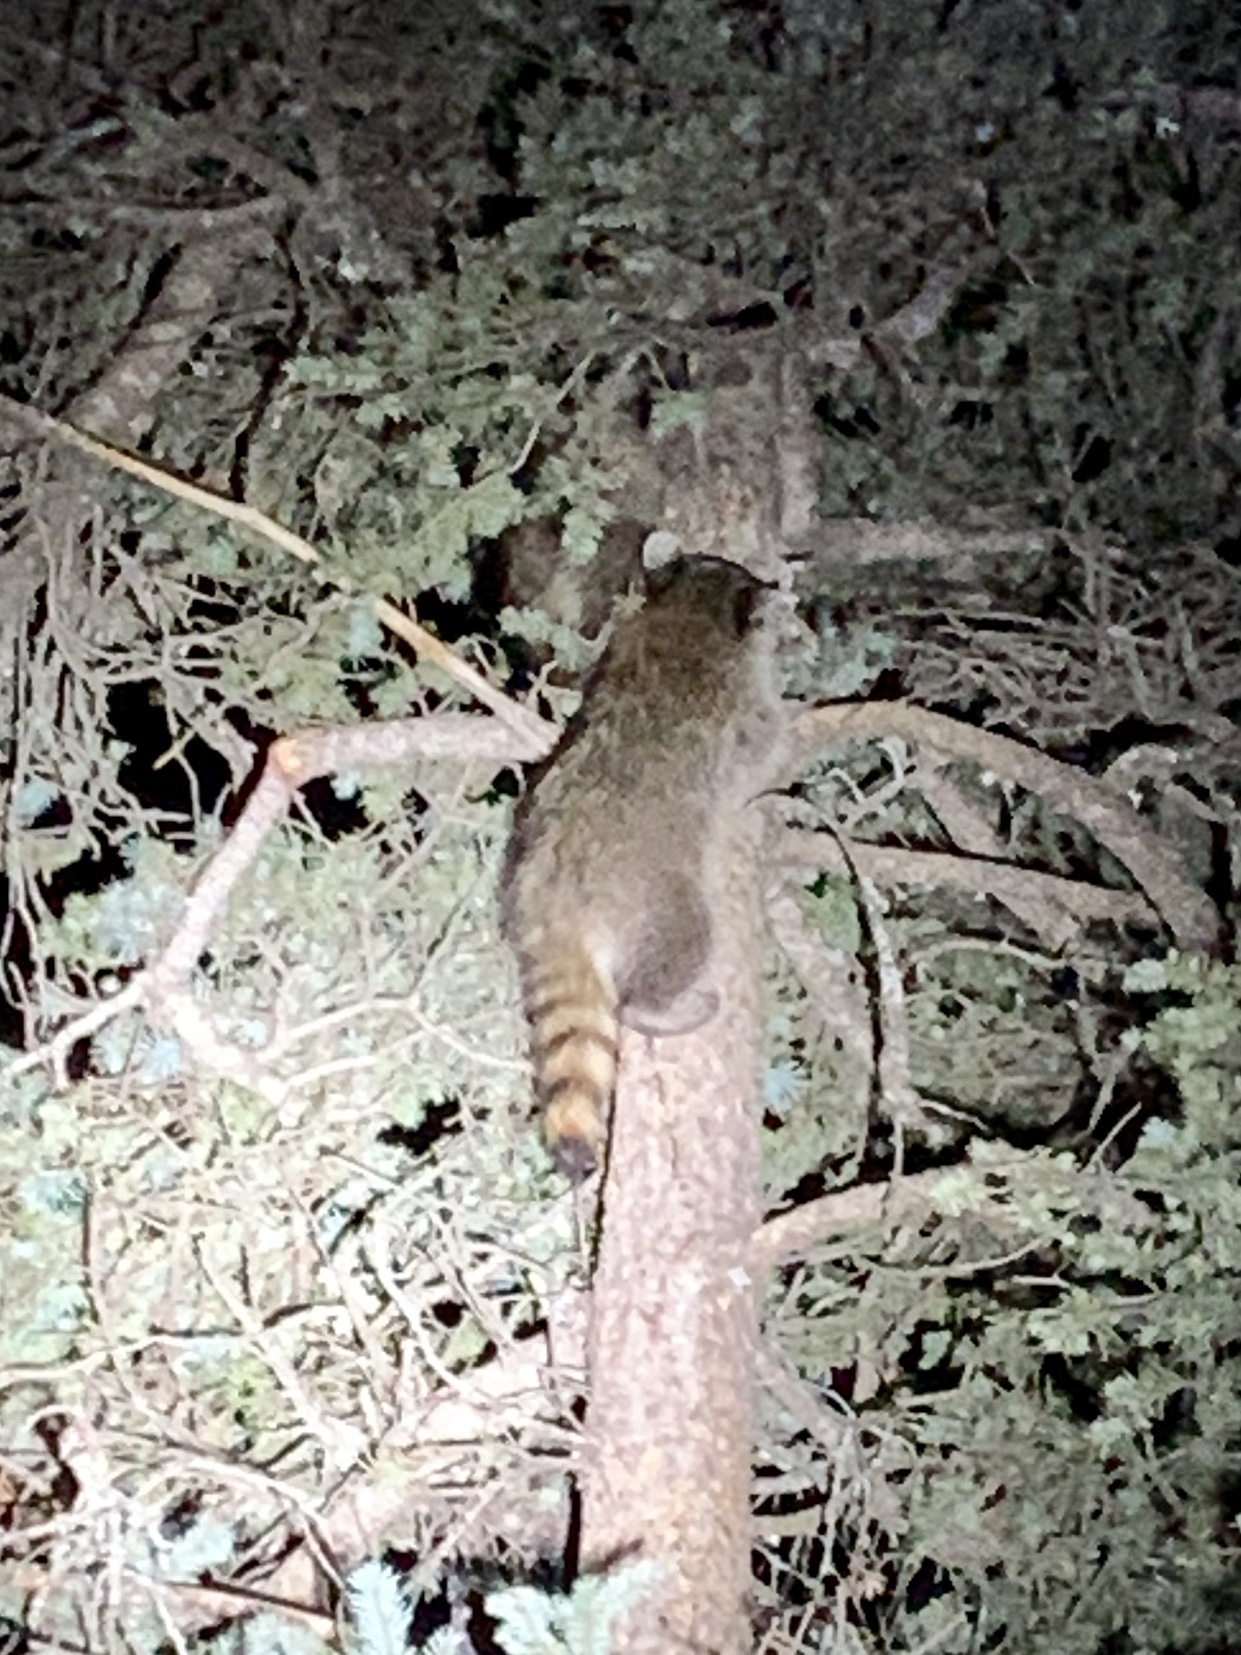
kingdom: Animalia
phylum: Chordata
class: Mammalia
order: Carnivora
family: Procyonidae
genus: Procyon
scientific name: Procyon lotor
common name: Raccoon
